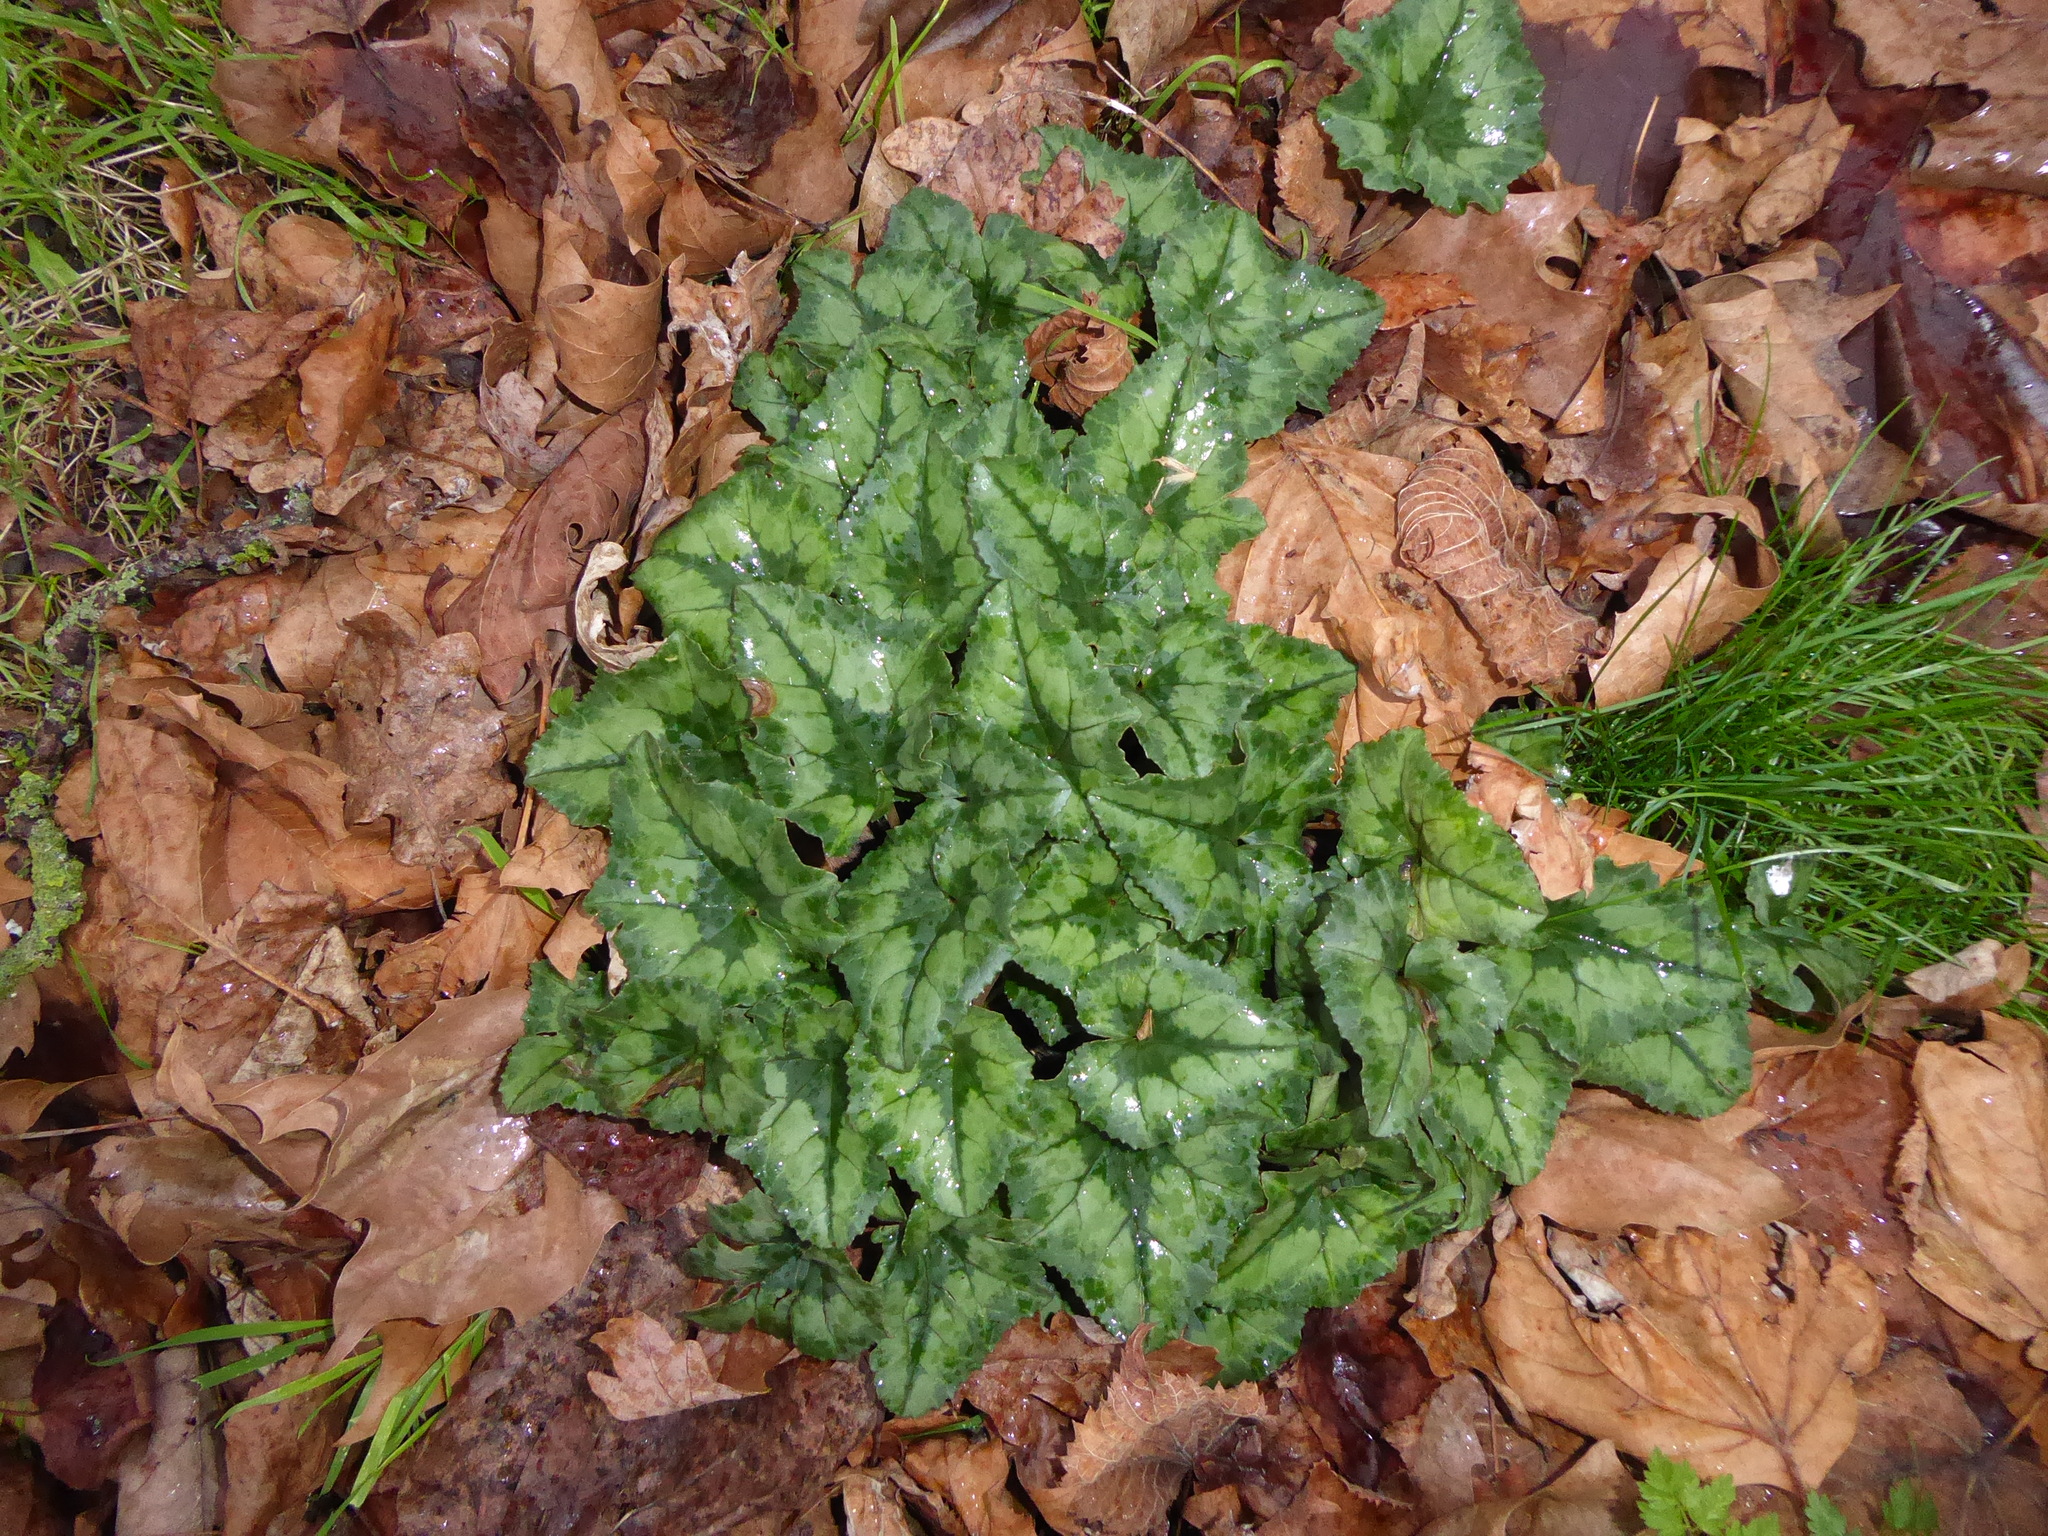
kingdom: Plantae
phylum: Tracheophyta
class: Magnoliopsida
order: Ericales
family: Primulaceae
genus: Cyclamen
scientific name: Cyclamen hederifolium
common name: Sowbread
